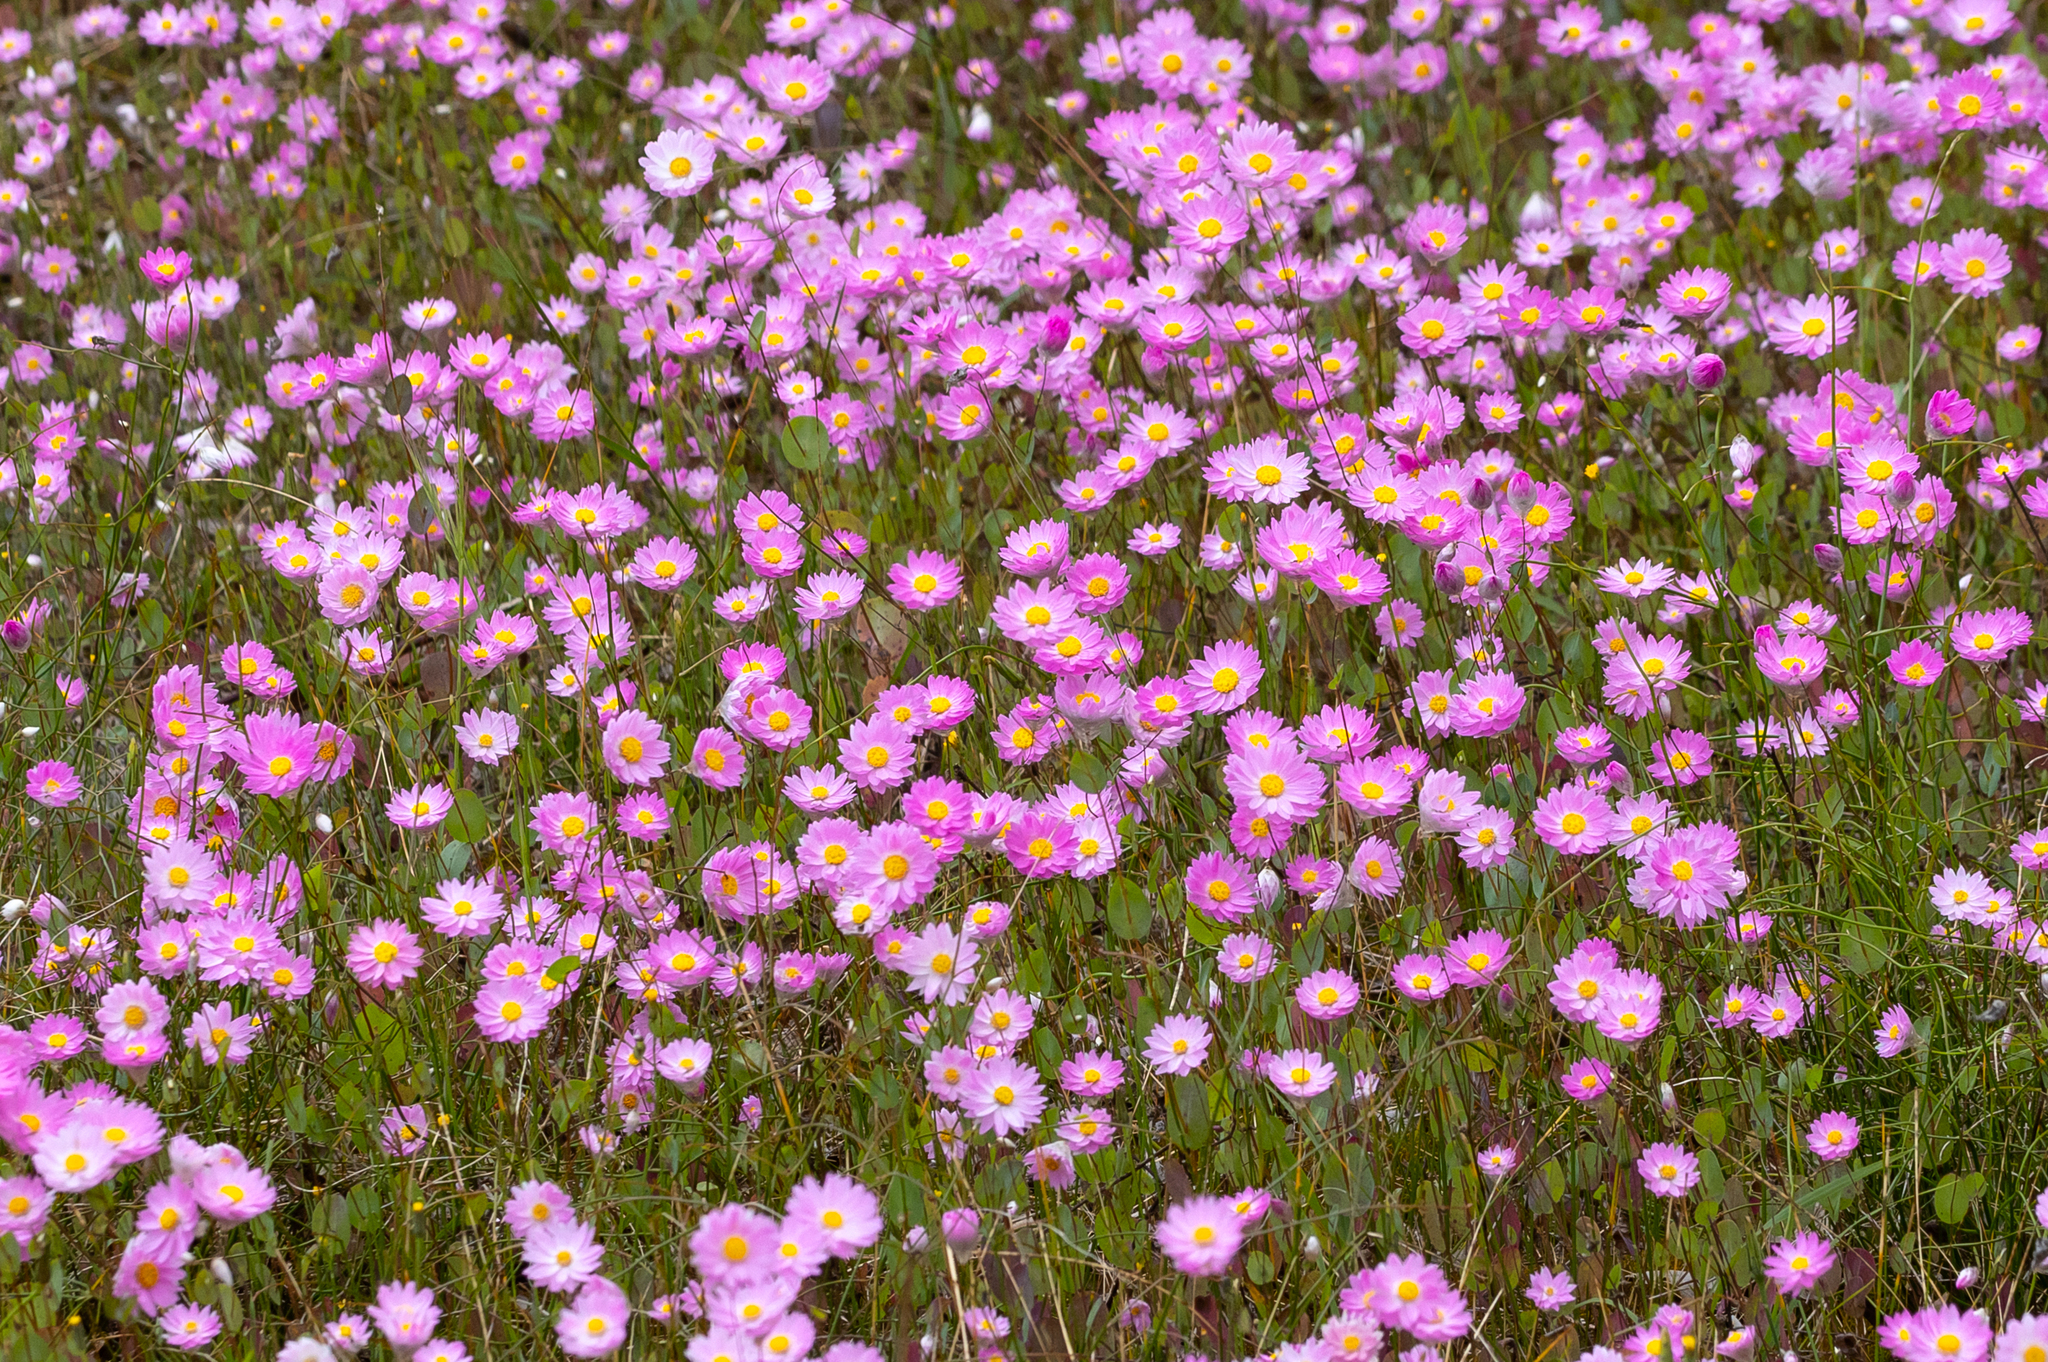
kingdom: Plantae
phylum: Tracheophyta
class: Magnoliopsida
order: Asterales
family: Asteraceae
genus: Rhodanthe
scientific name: Rhodanthe manglesii
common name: Pink sunray
